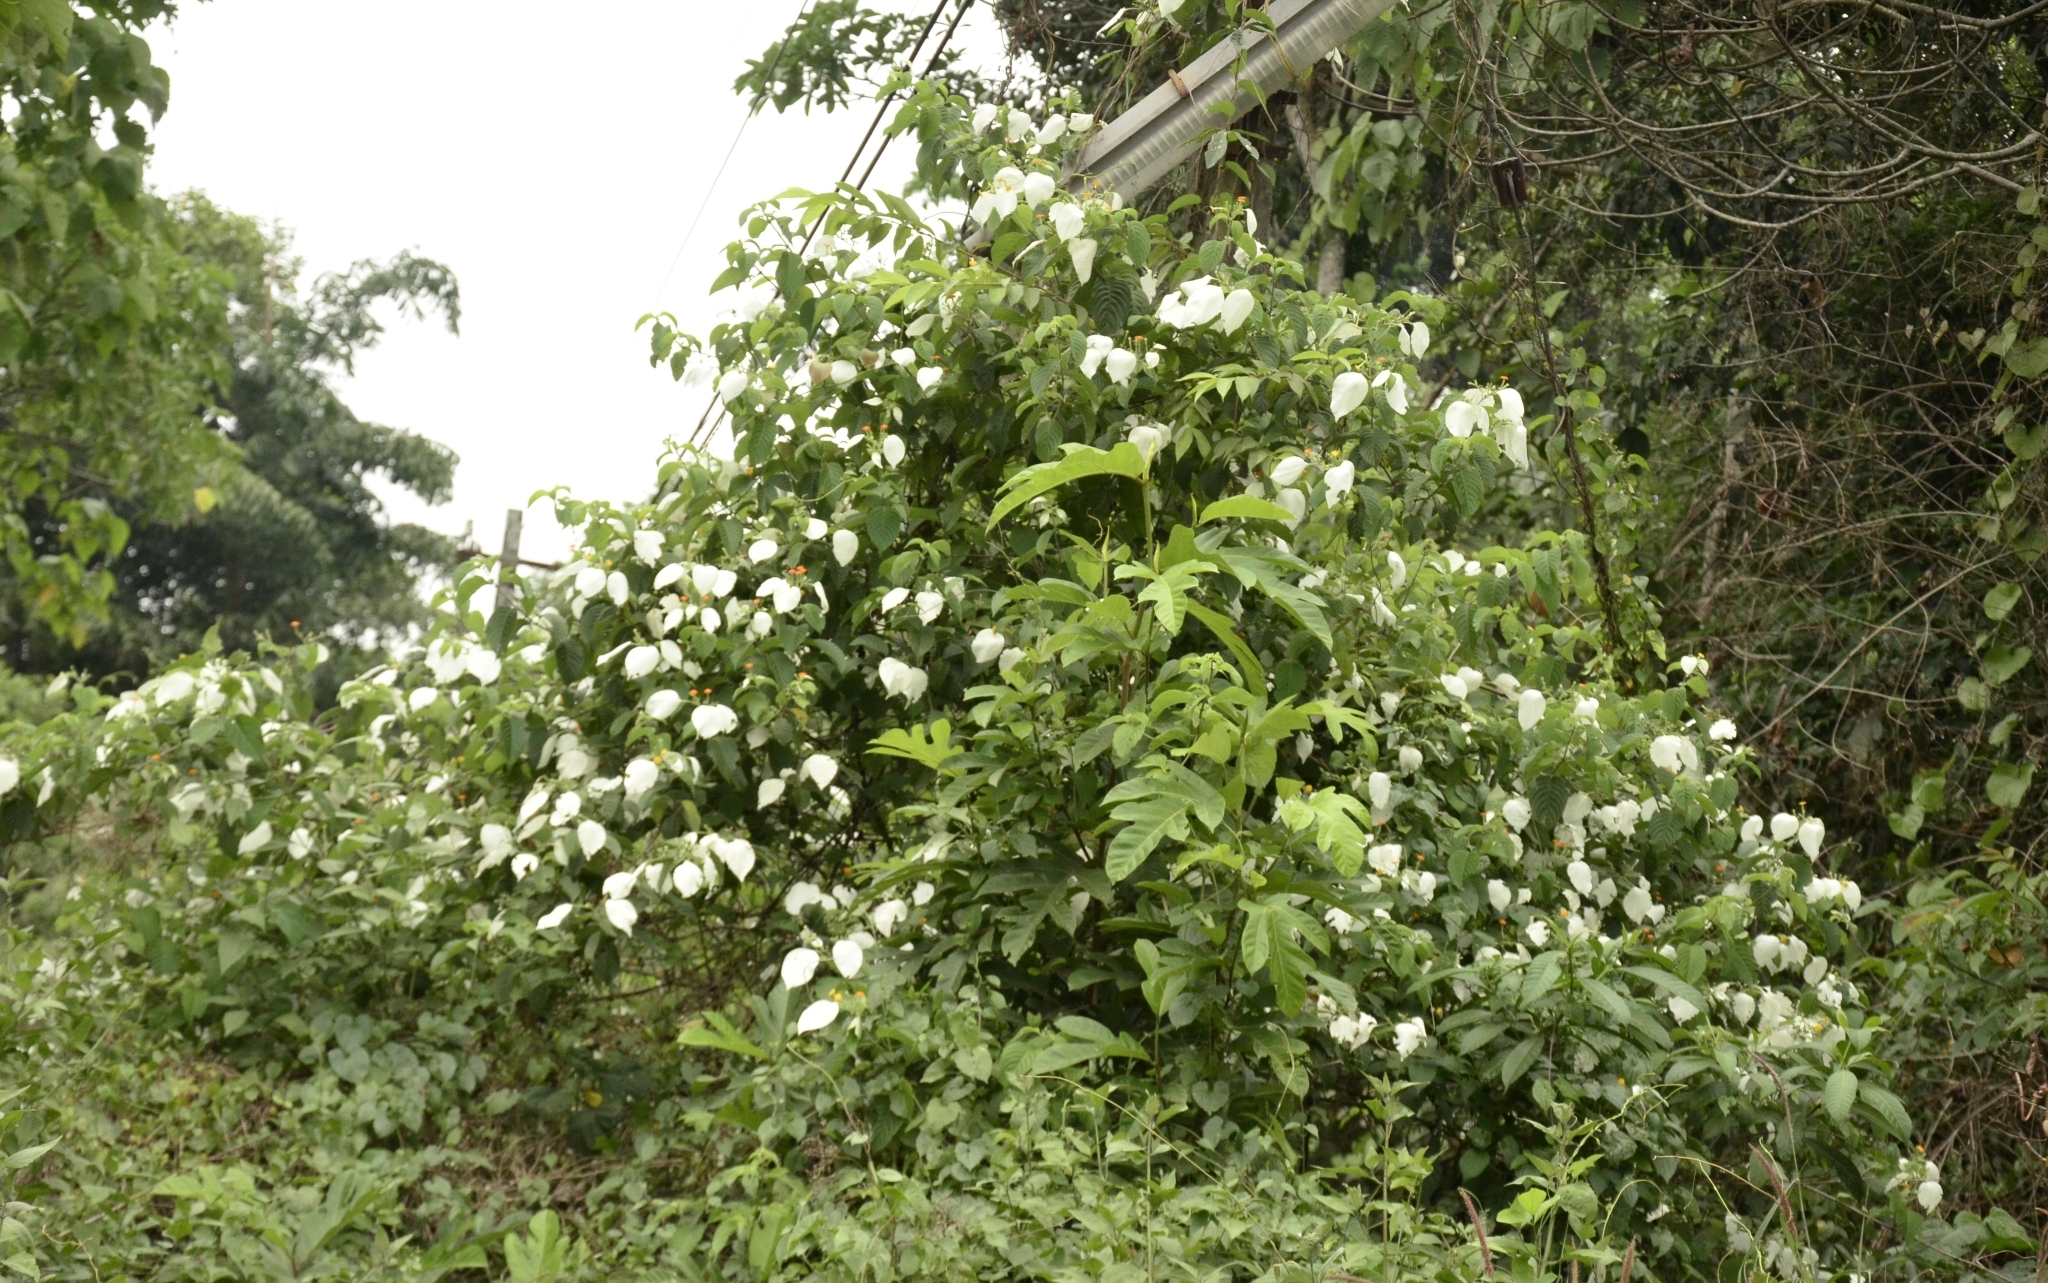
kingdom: Plantae
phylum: Tracheophyta
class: Magnoliopsida
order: Gentianales
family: Rubiaceae
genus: Mussaenda
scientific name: Mussaenda frondosa
